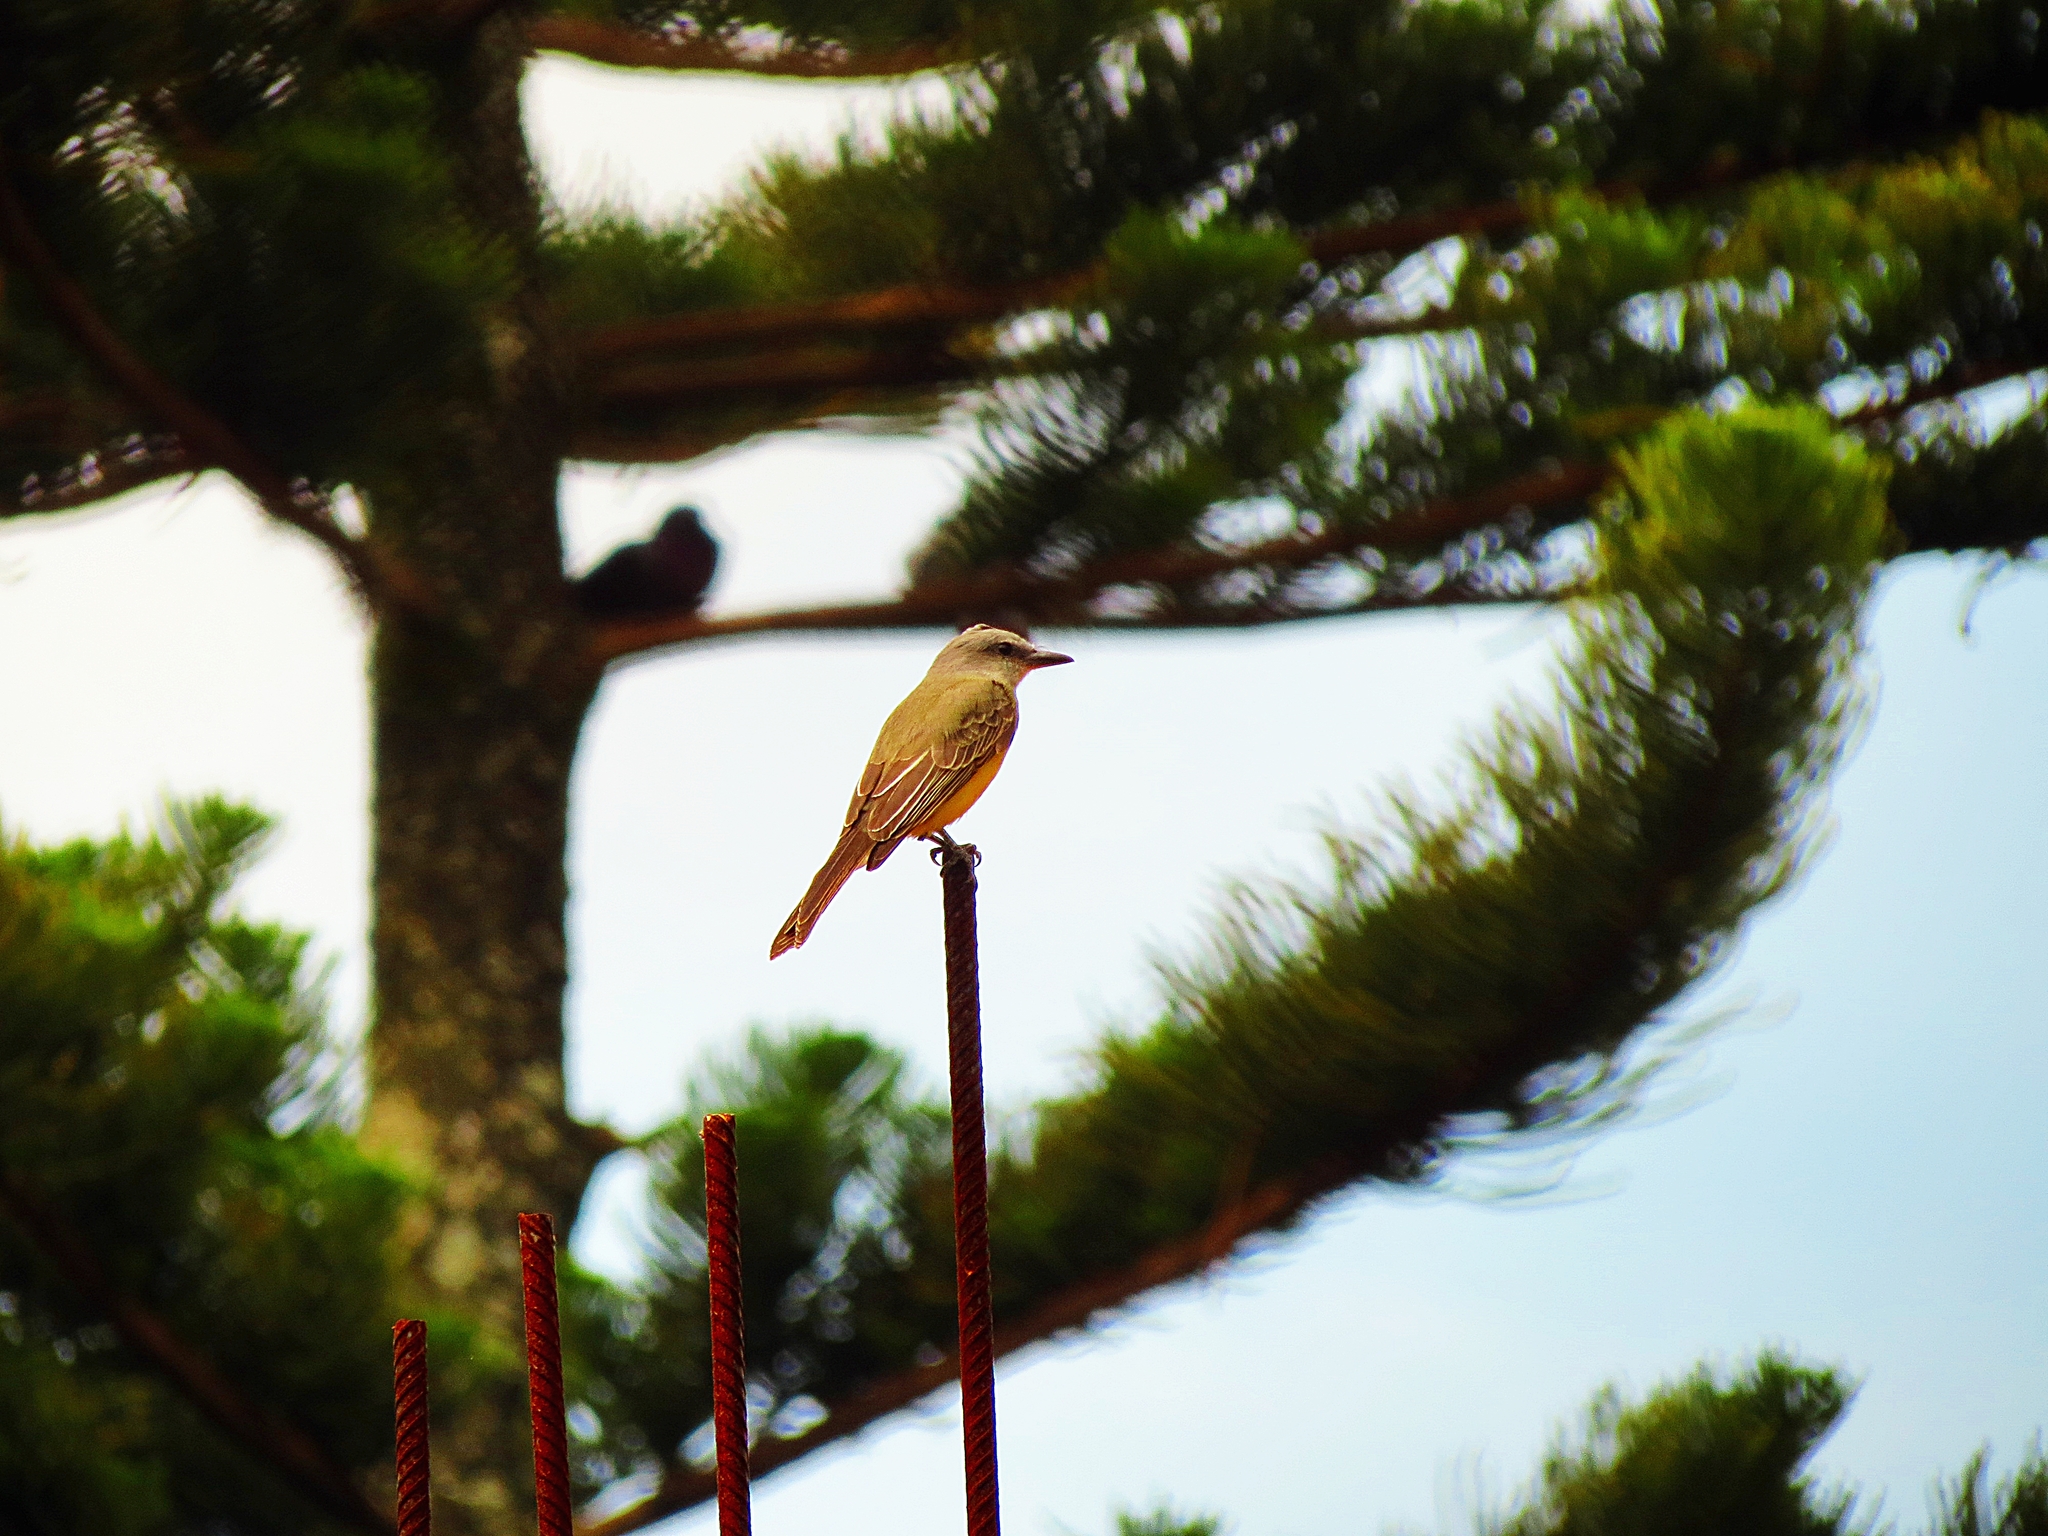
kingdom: Animalia
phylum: Chordata
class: Aves
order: Passeriformes
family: Tyrannidae
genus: Tyrannus
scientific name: Tyrannus melancholicus
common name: Tropical kingbird
